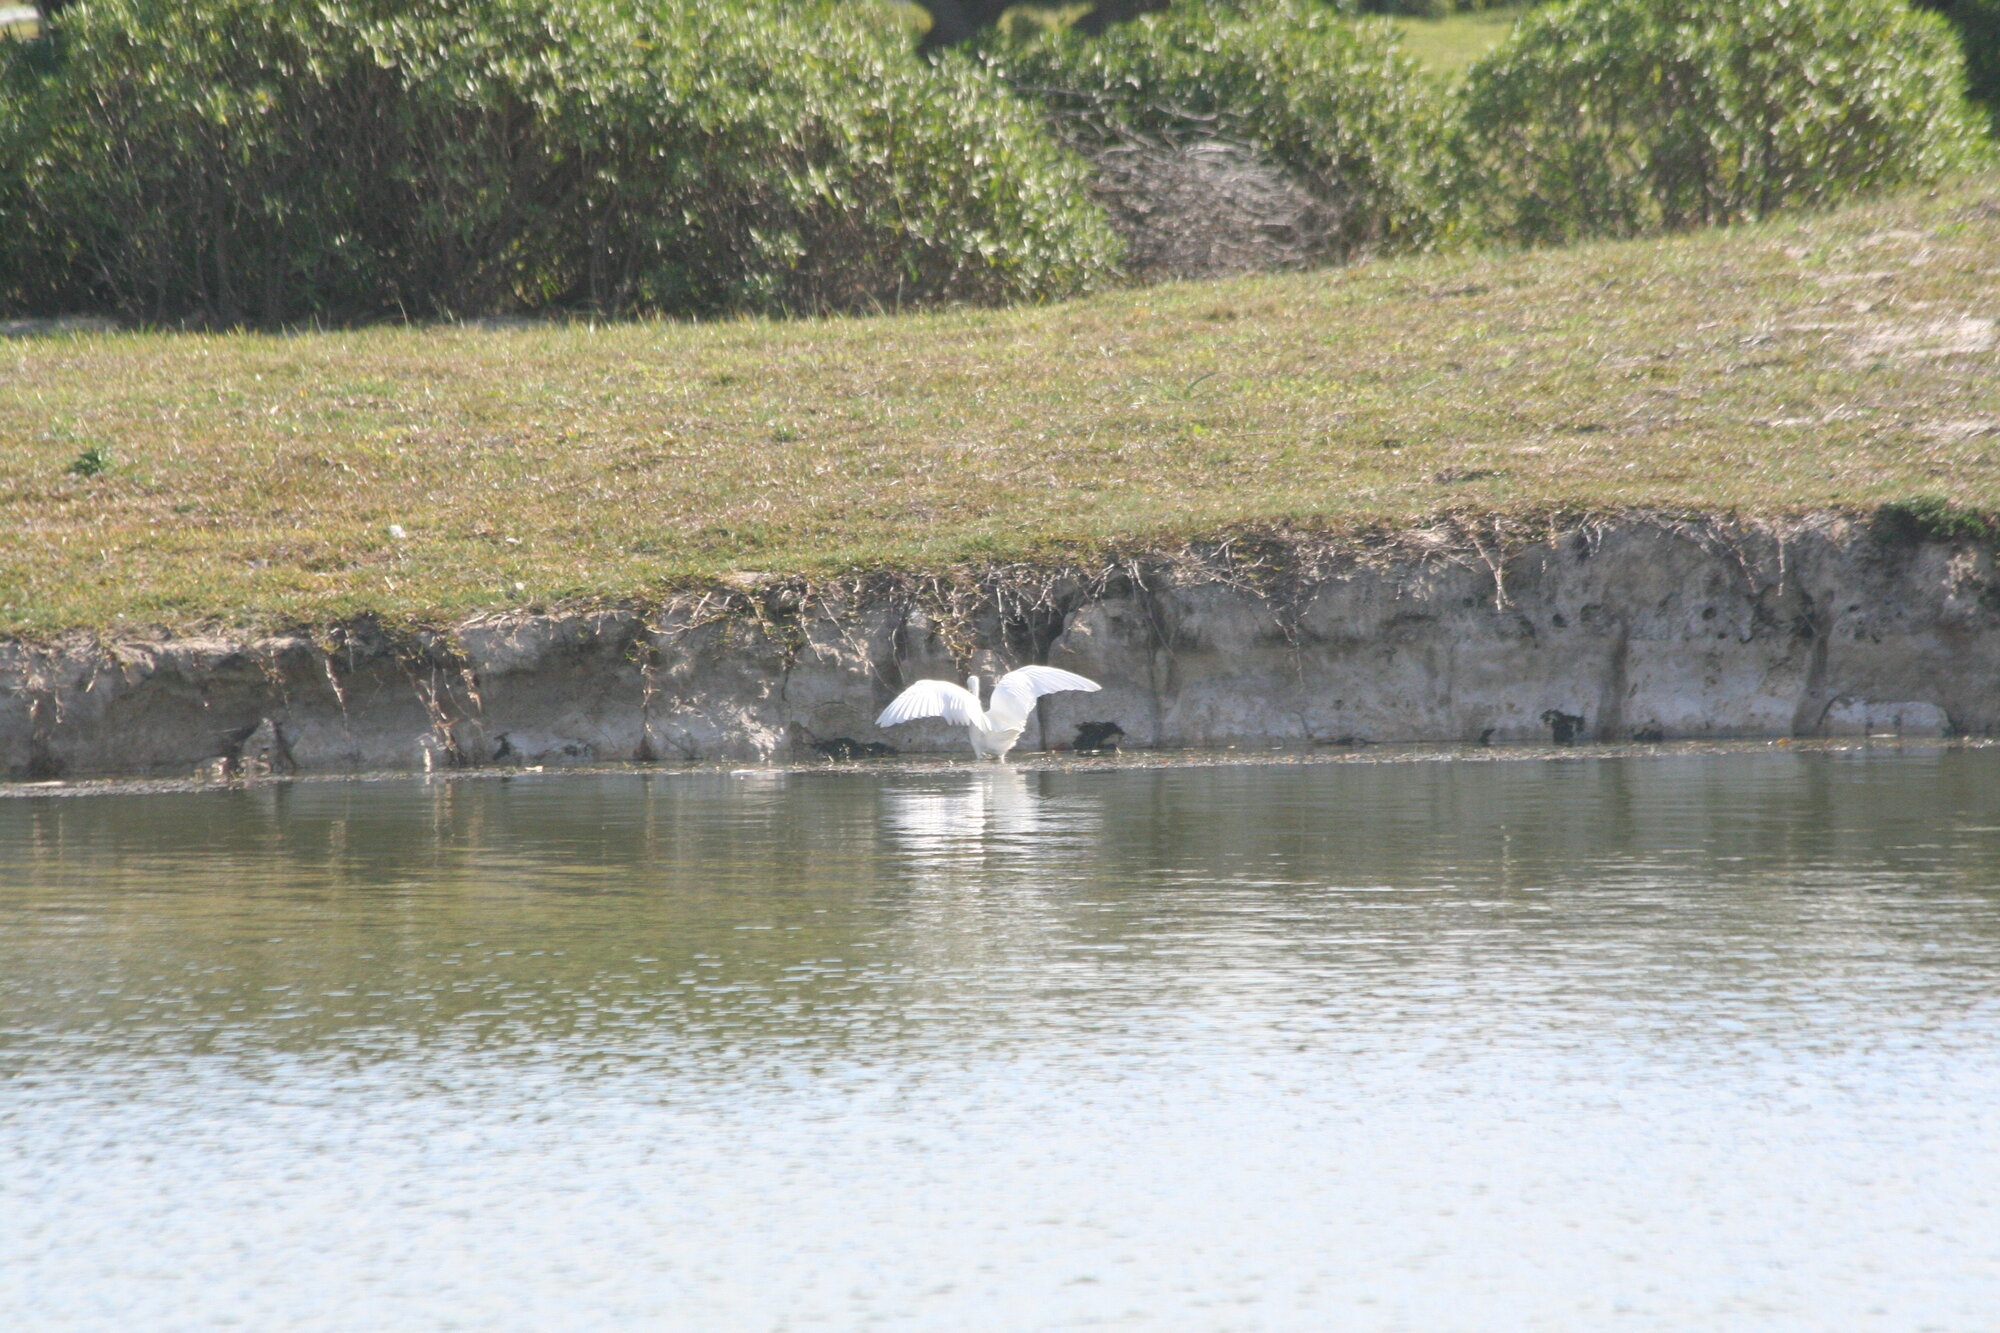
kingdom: Animalia
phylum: Chordata
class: Aves
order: Pelecaniformes
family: Ardeidae
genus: Egretta
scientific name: Egretta garzetta
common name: Little egret
